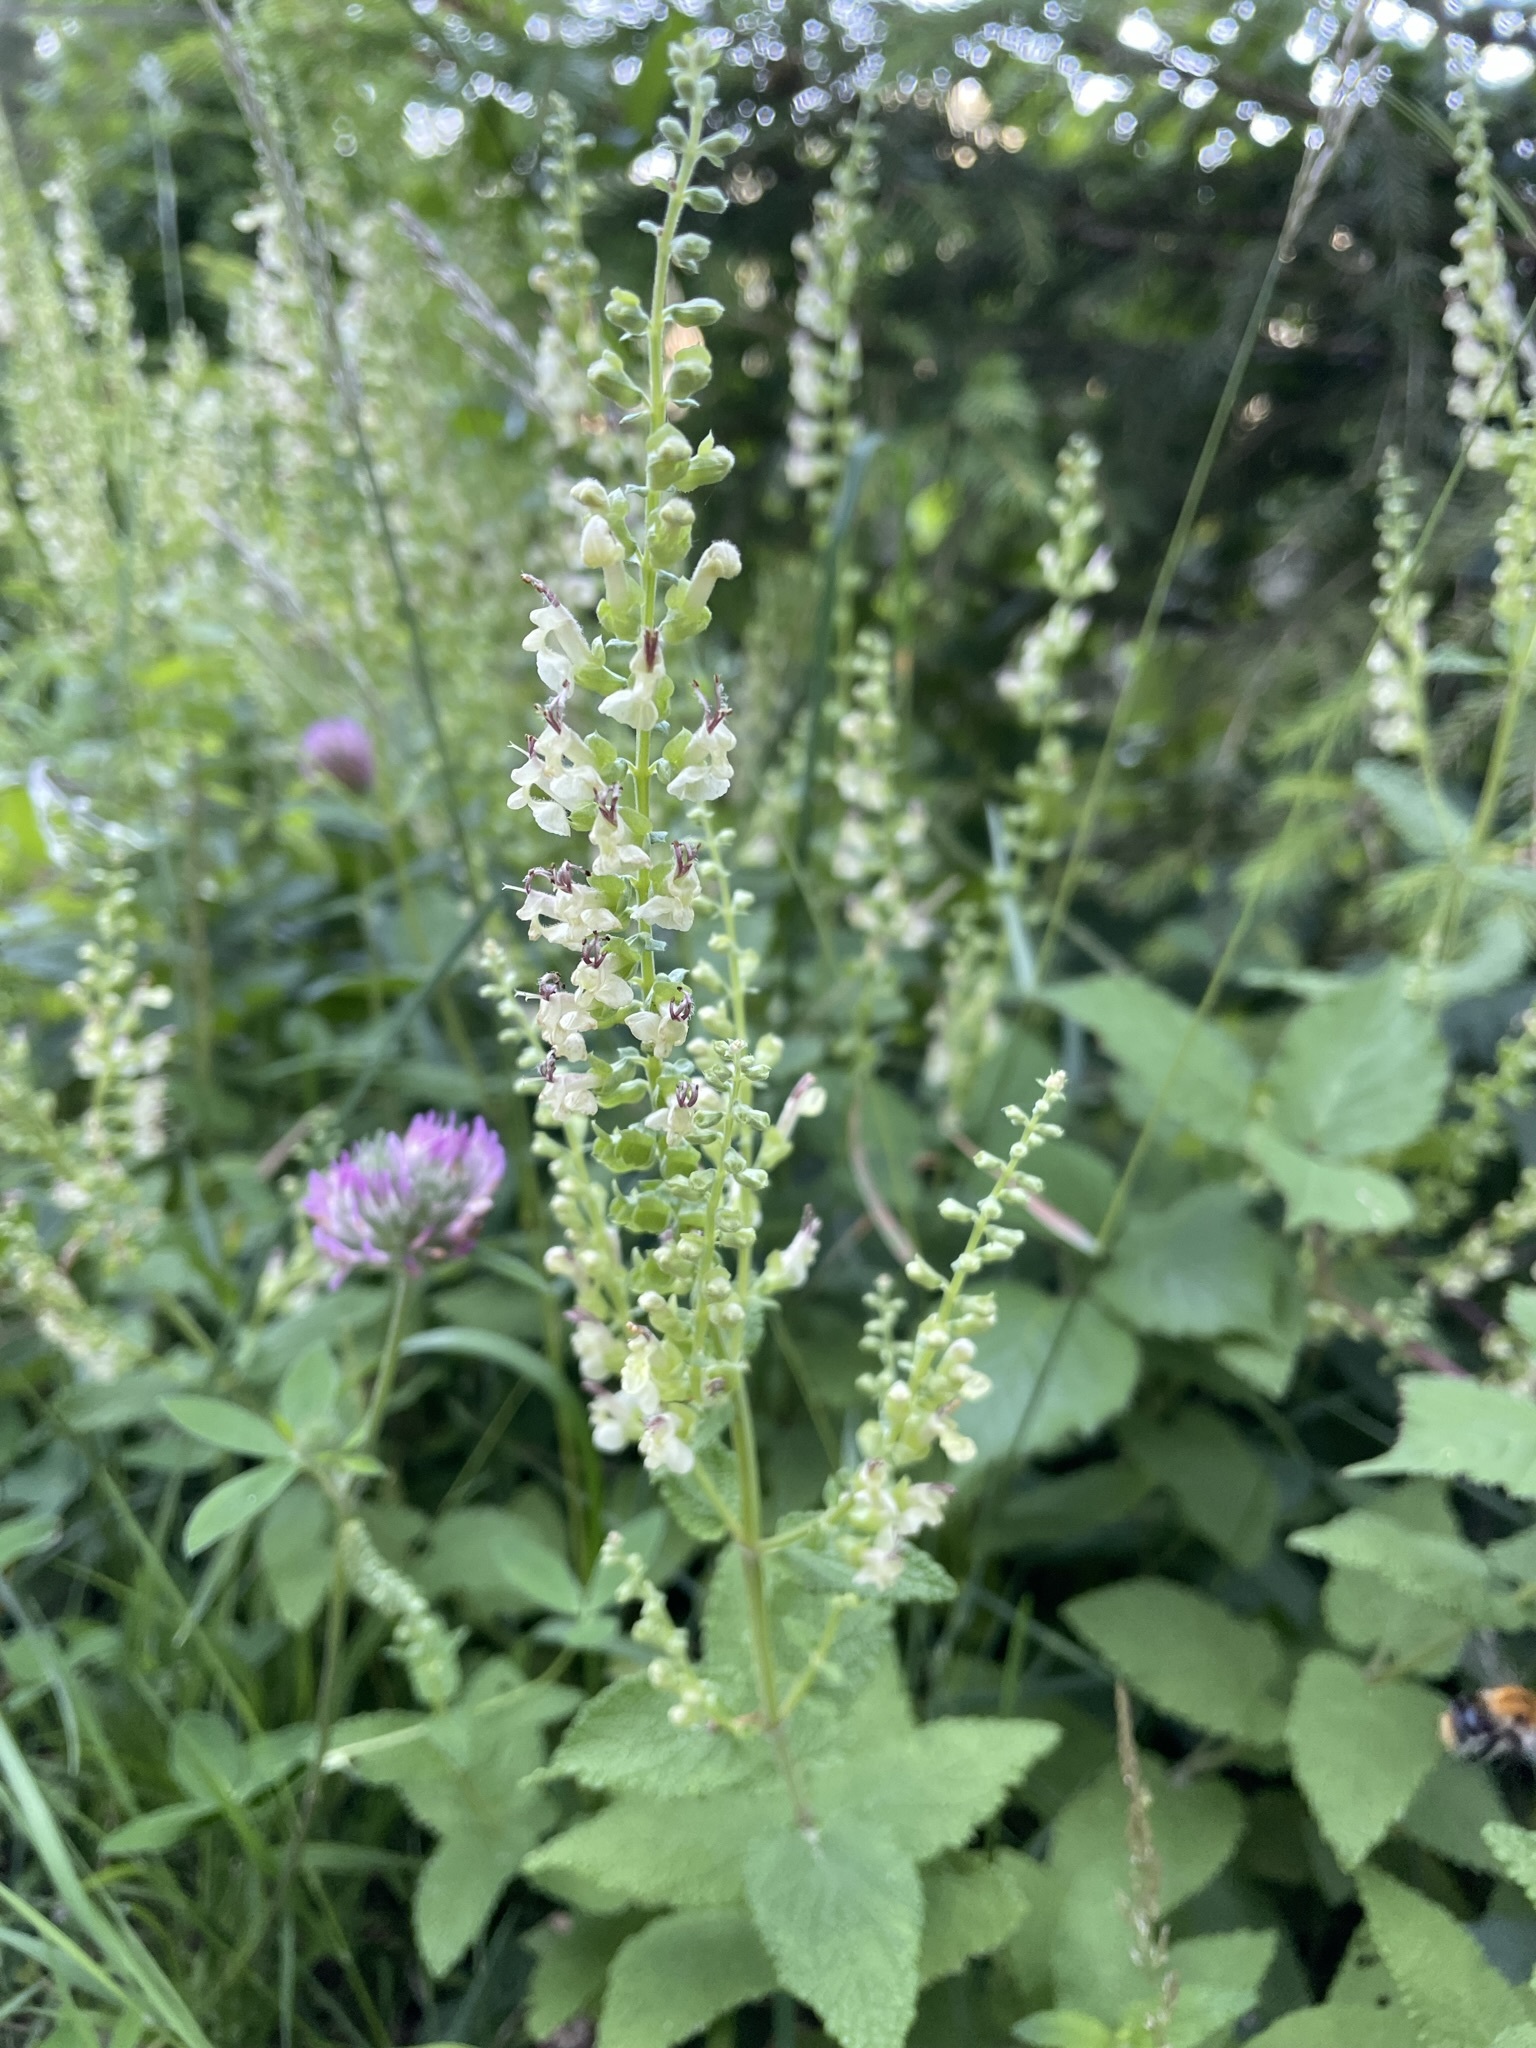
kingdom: Plantae
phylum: Tracheophyta
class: Magnoliopsida
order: Lamiales
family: Lamiaceae
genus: Teucrium
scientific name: Teucrium scorodonia
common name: Woodland germander
